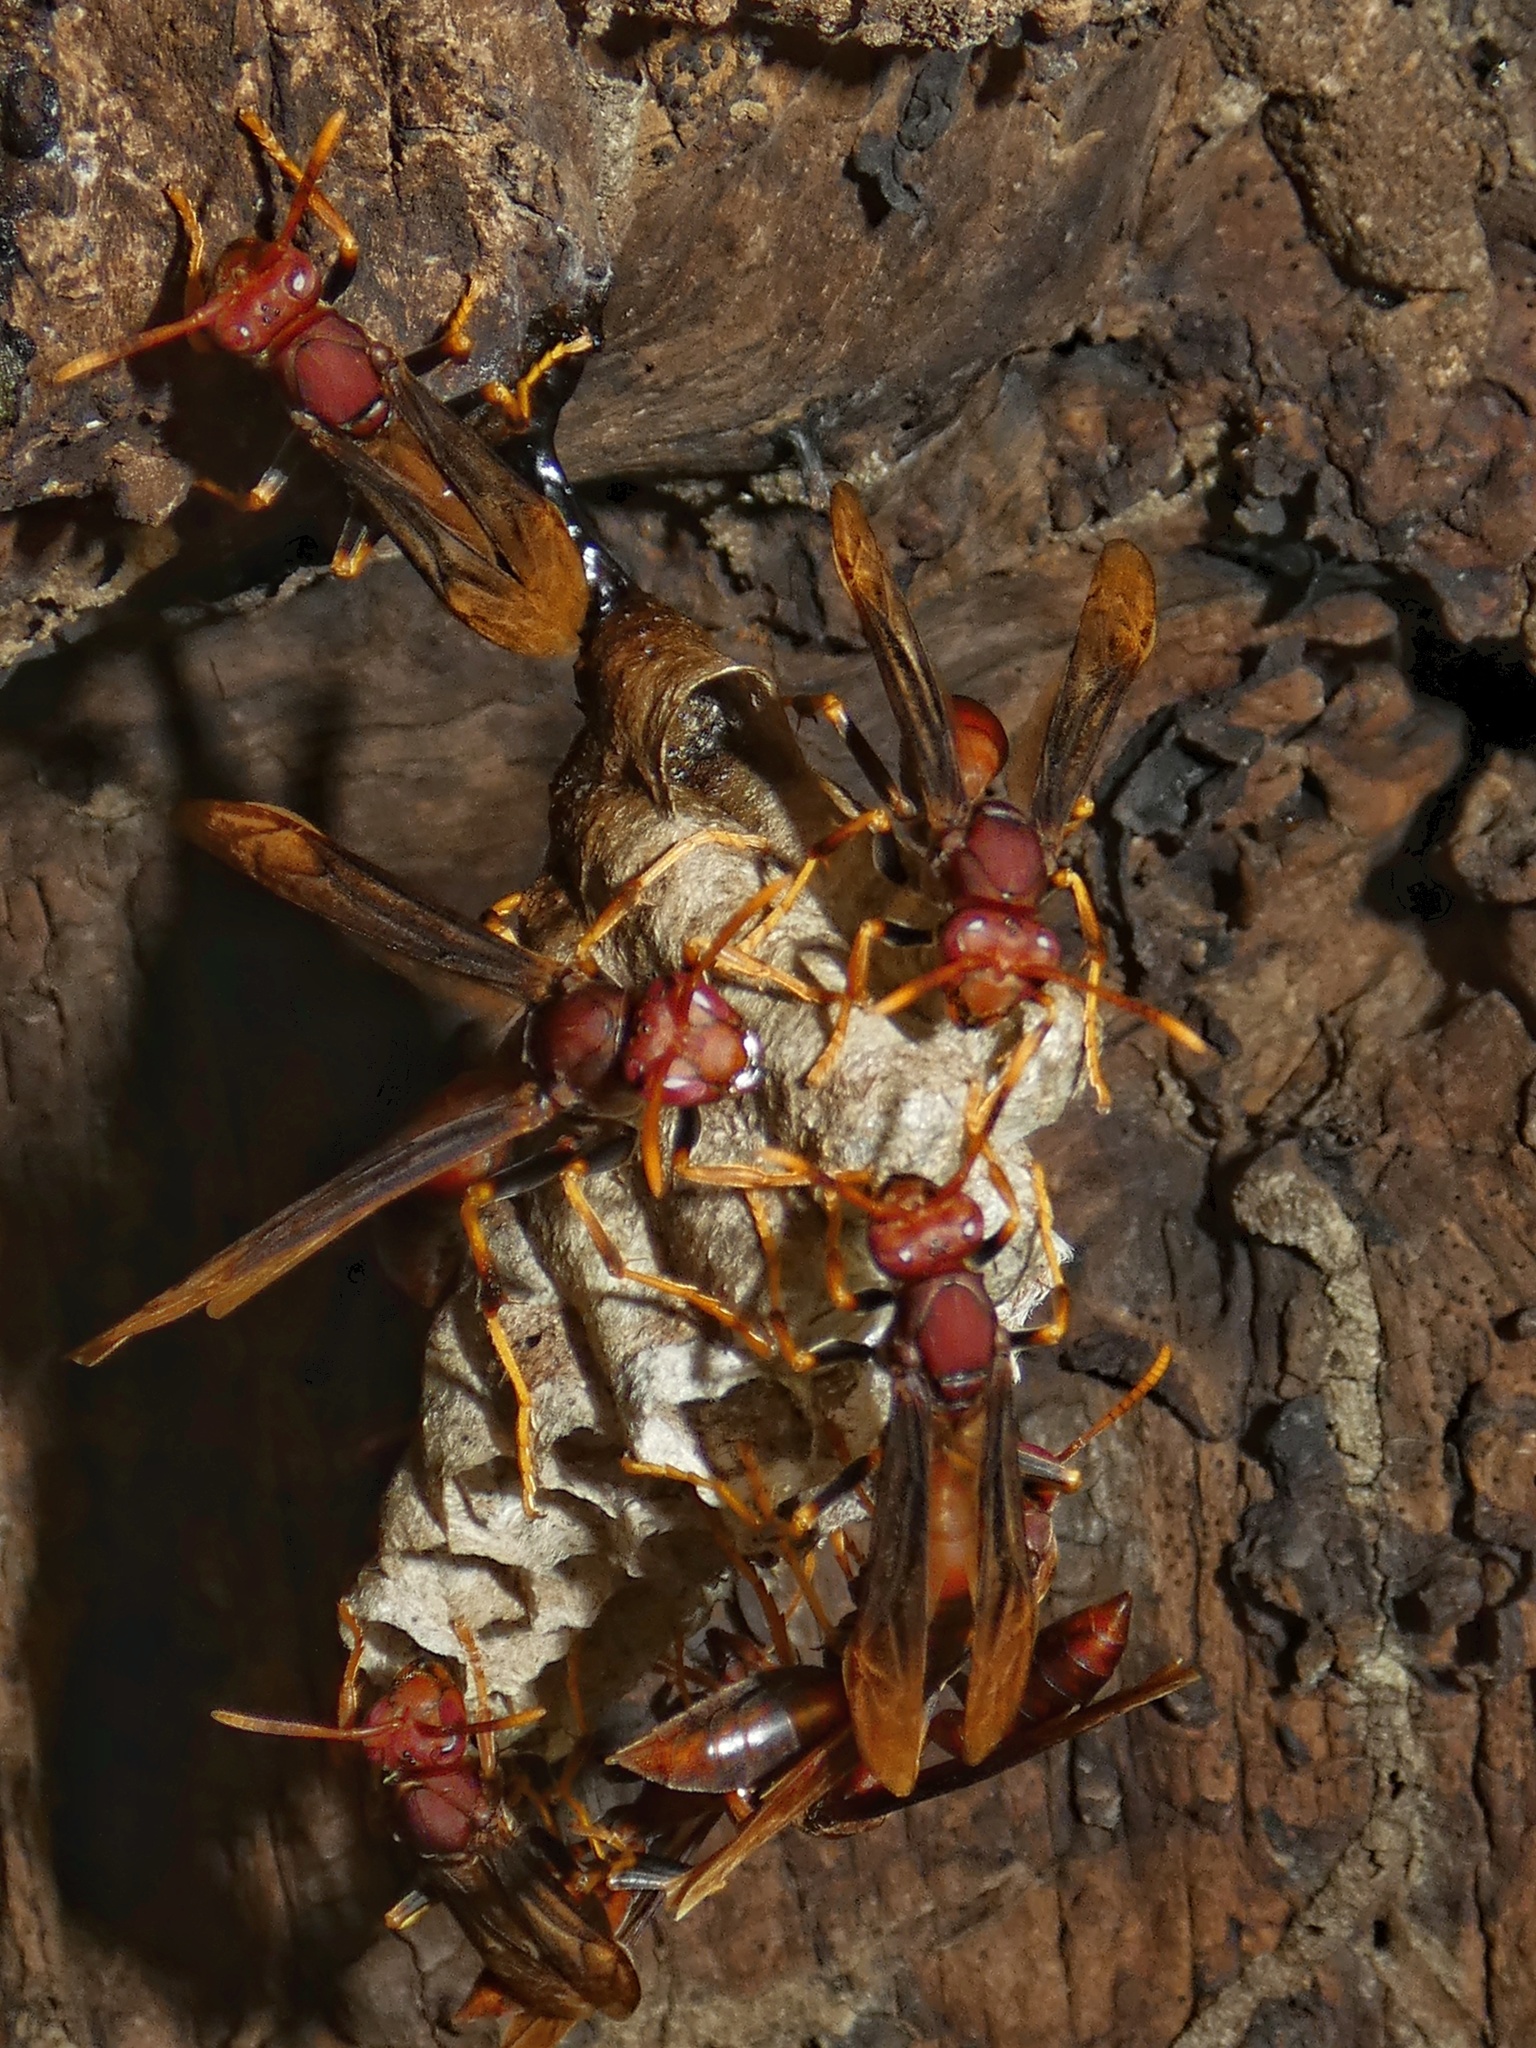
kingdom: Animalia
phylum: Arthropoda
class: Insecta
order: Hymenoptera
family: Eumenidae
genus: Polistes
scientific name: Polistes lanio
